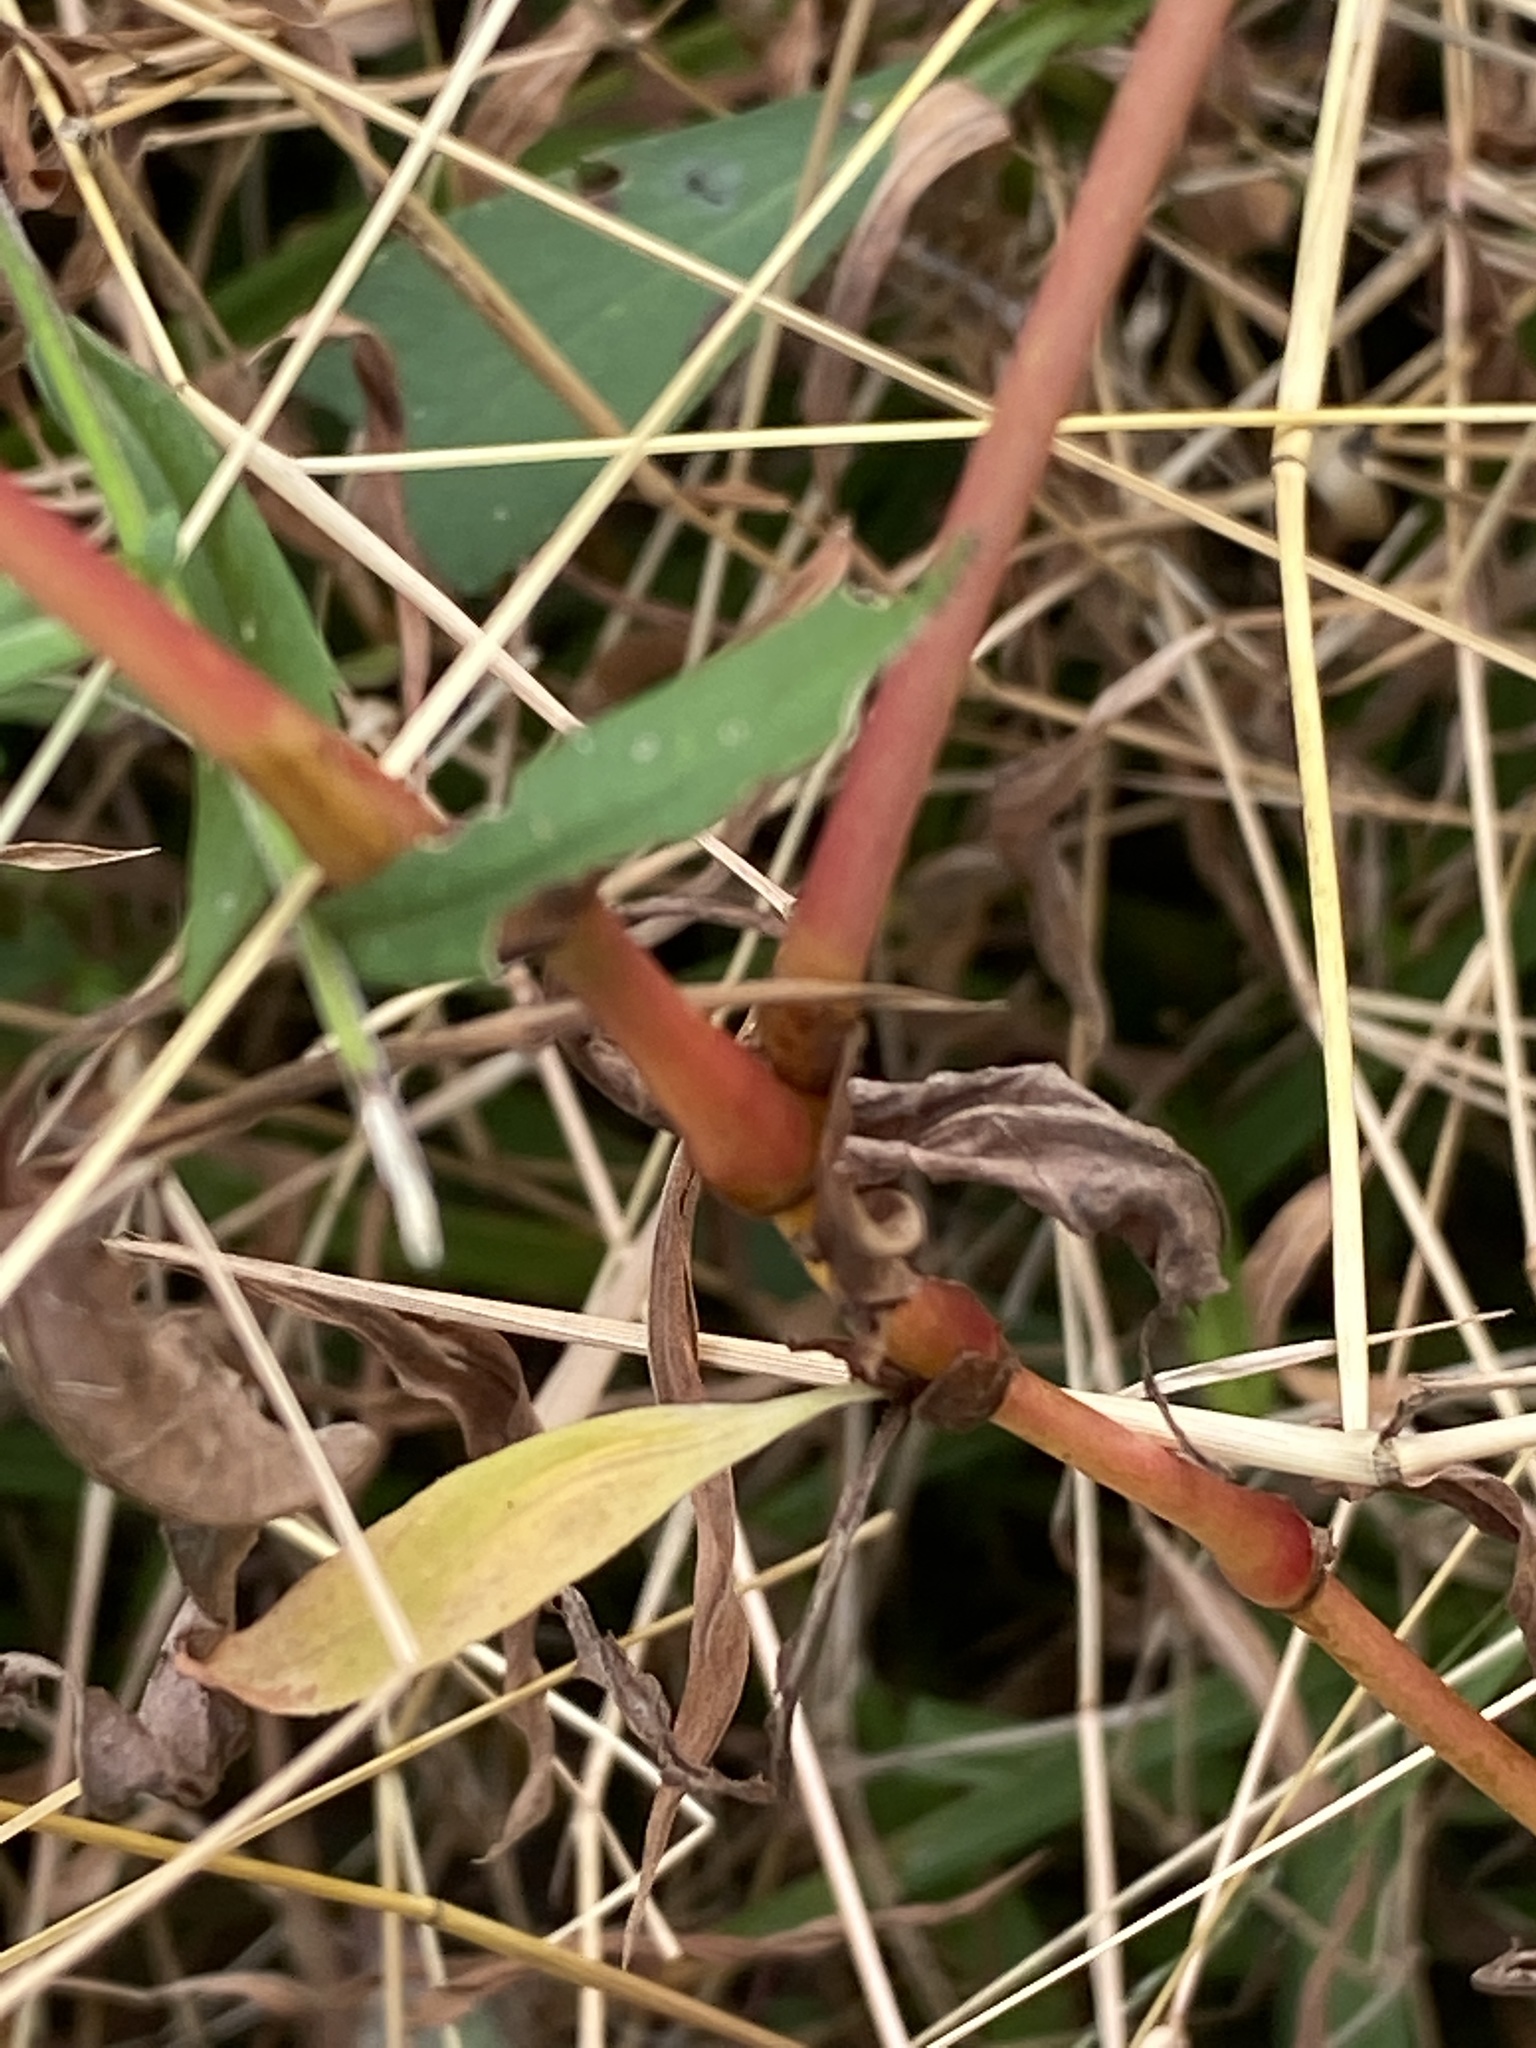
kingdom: Plantae
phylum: Tracheophyta
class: Magnoliopsida
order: Caryophyllales
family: Polygonaceae
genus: Persicaria
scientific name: Persicaria pensylvanica
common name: Pinkweed
